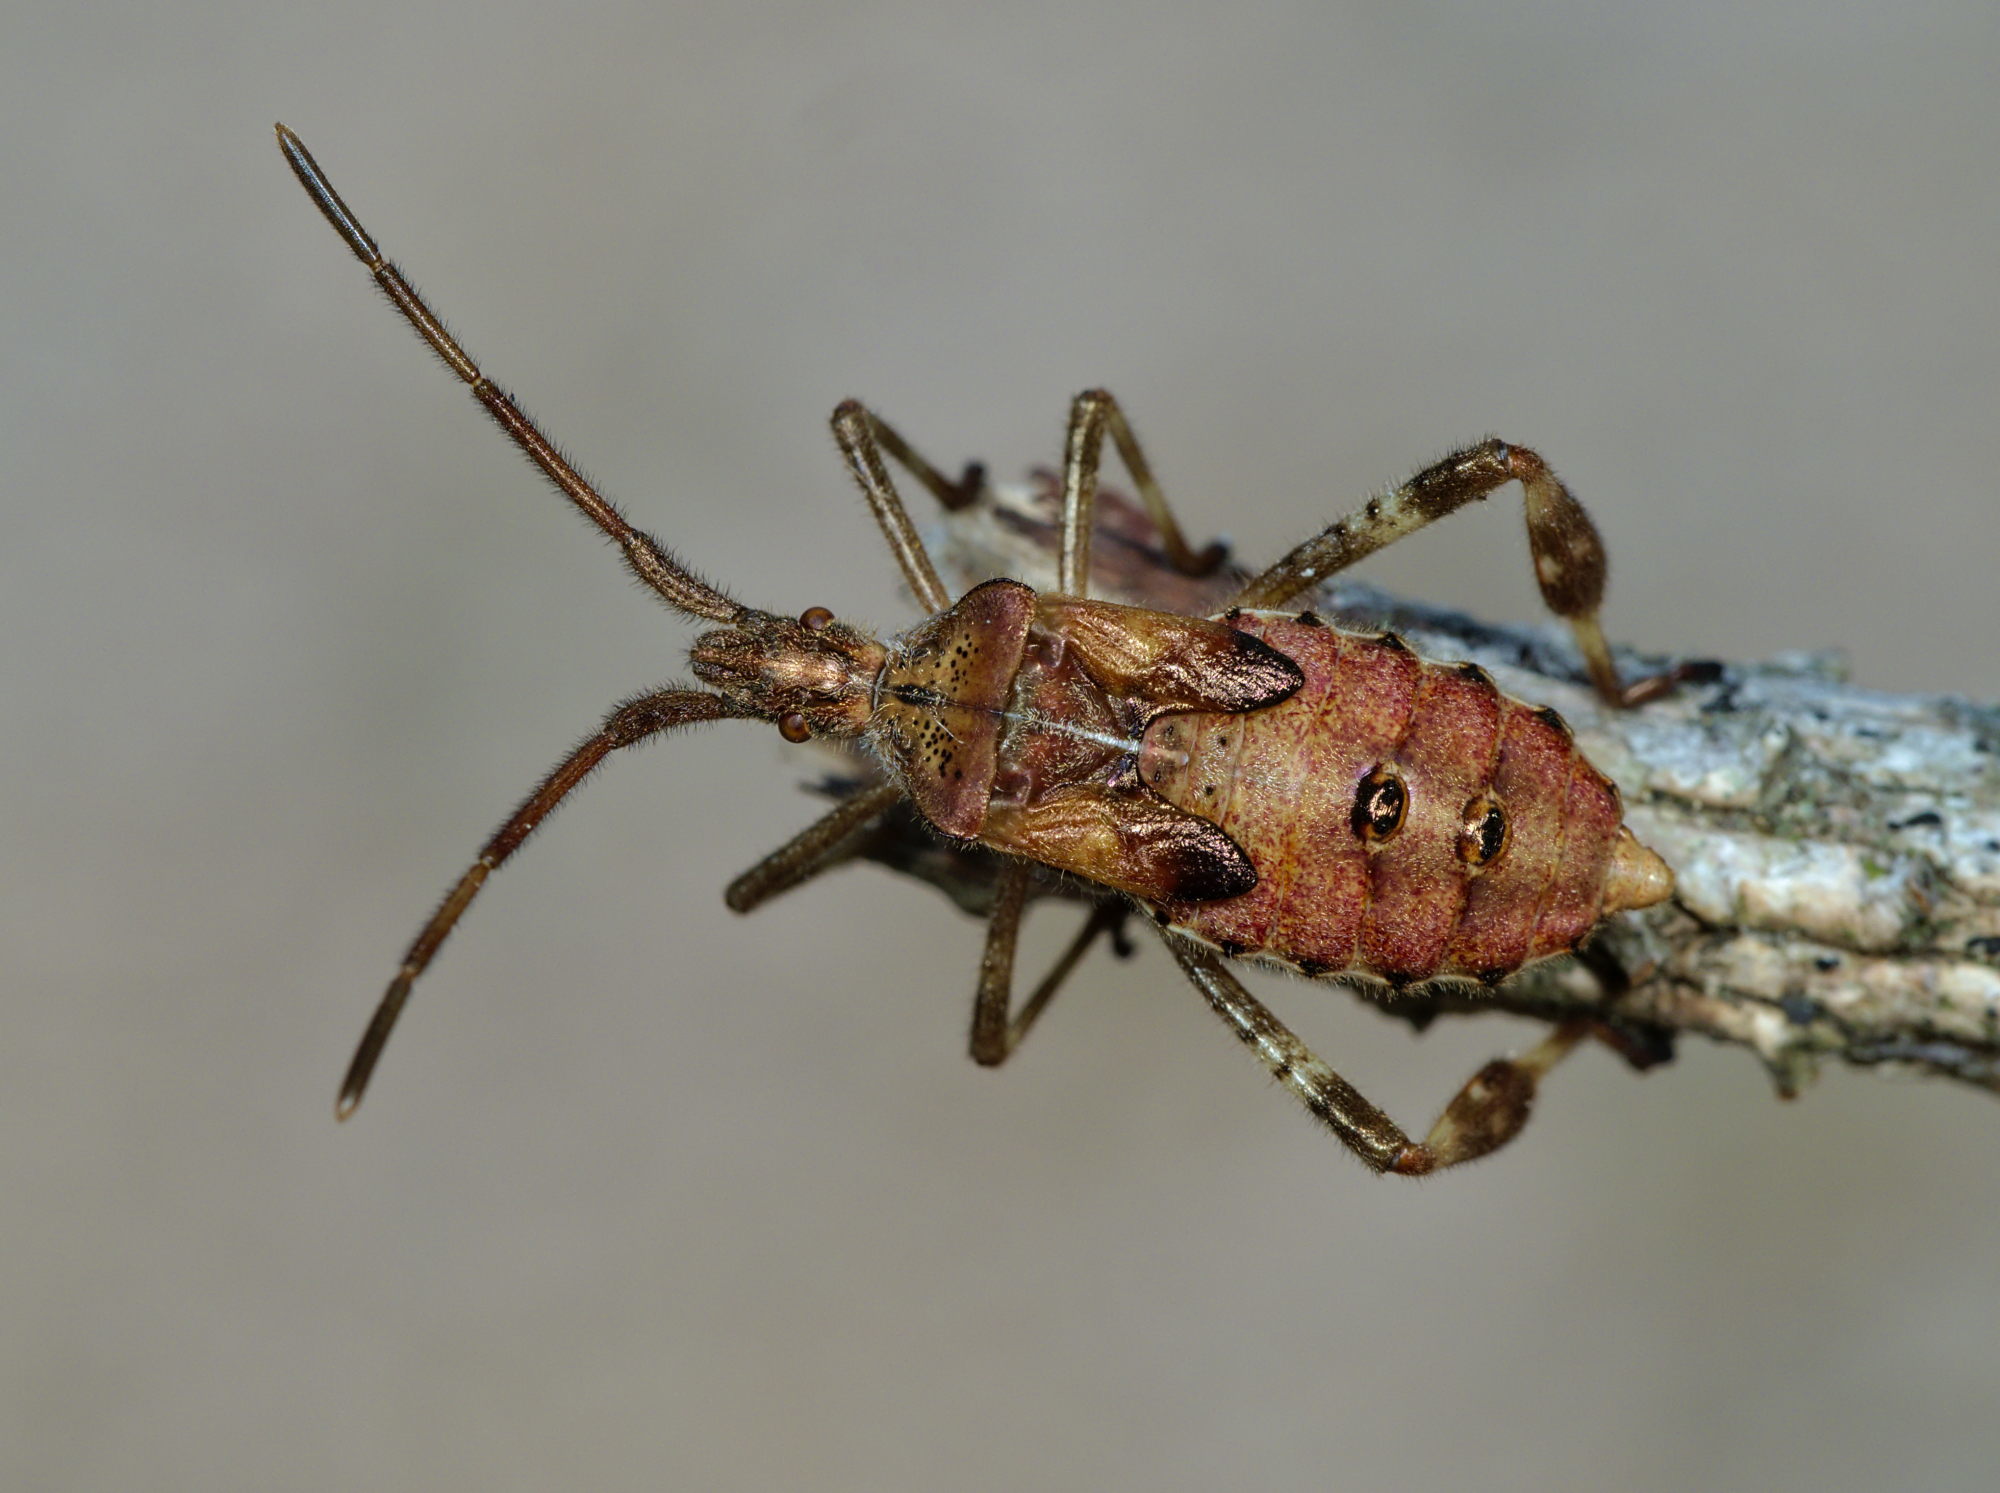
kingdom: Animalia
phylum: Arthropoda
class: Insecta
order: Hemiptera
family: Coreidae
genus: Leptoglossus
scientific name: Leptoglossus occidentalis
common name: Western conifer-seed bug
